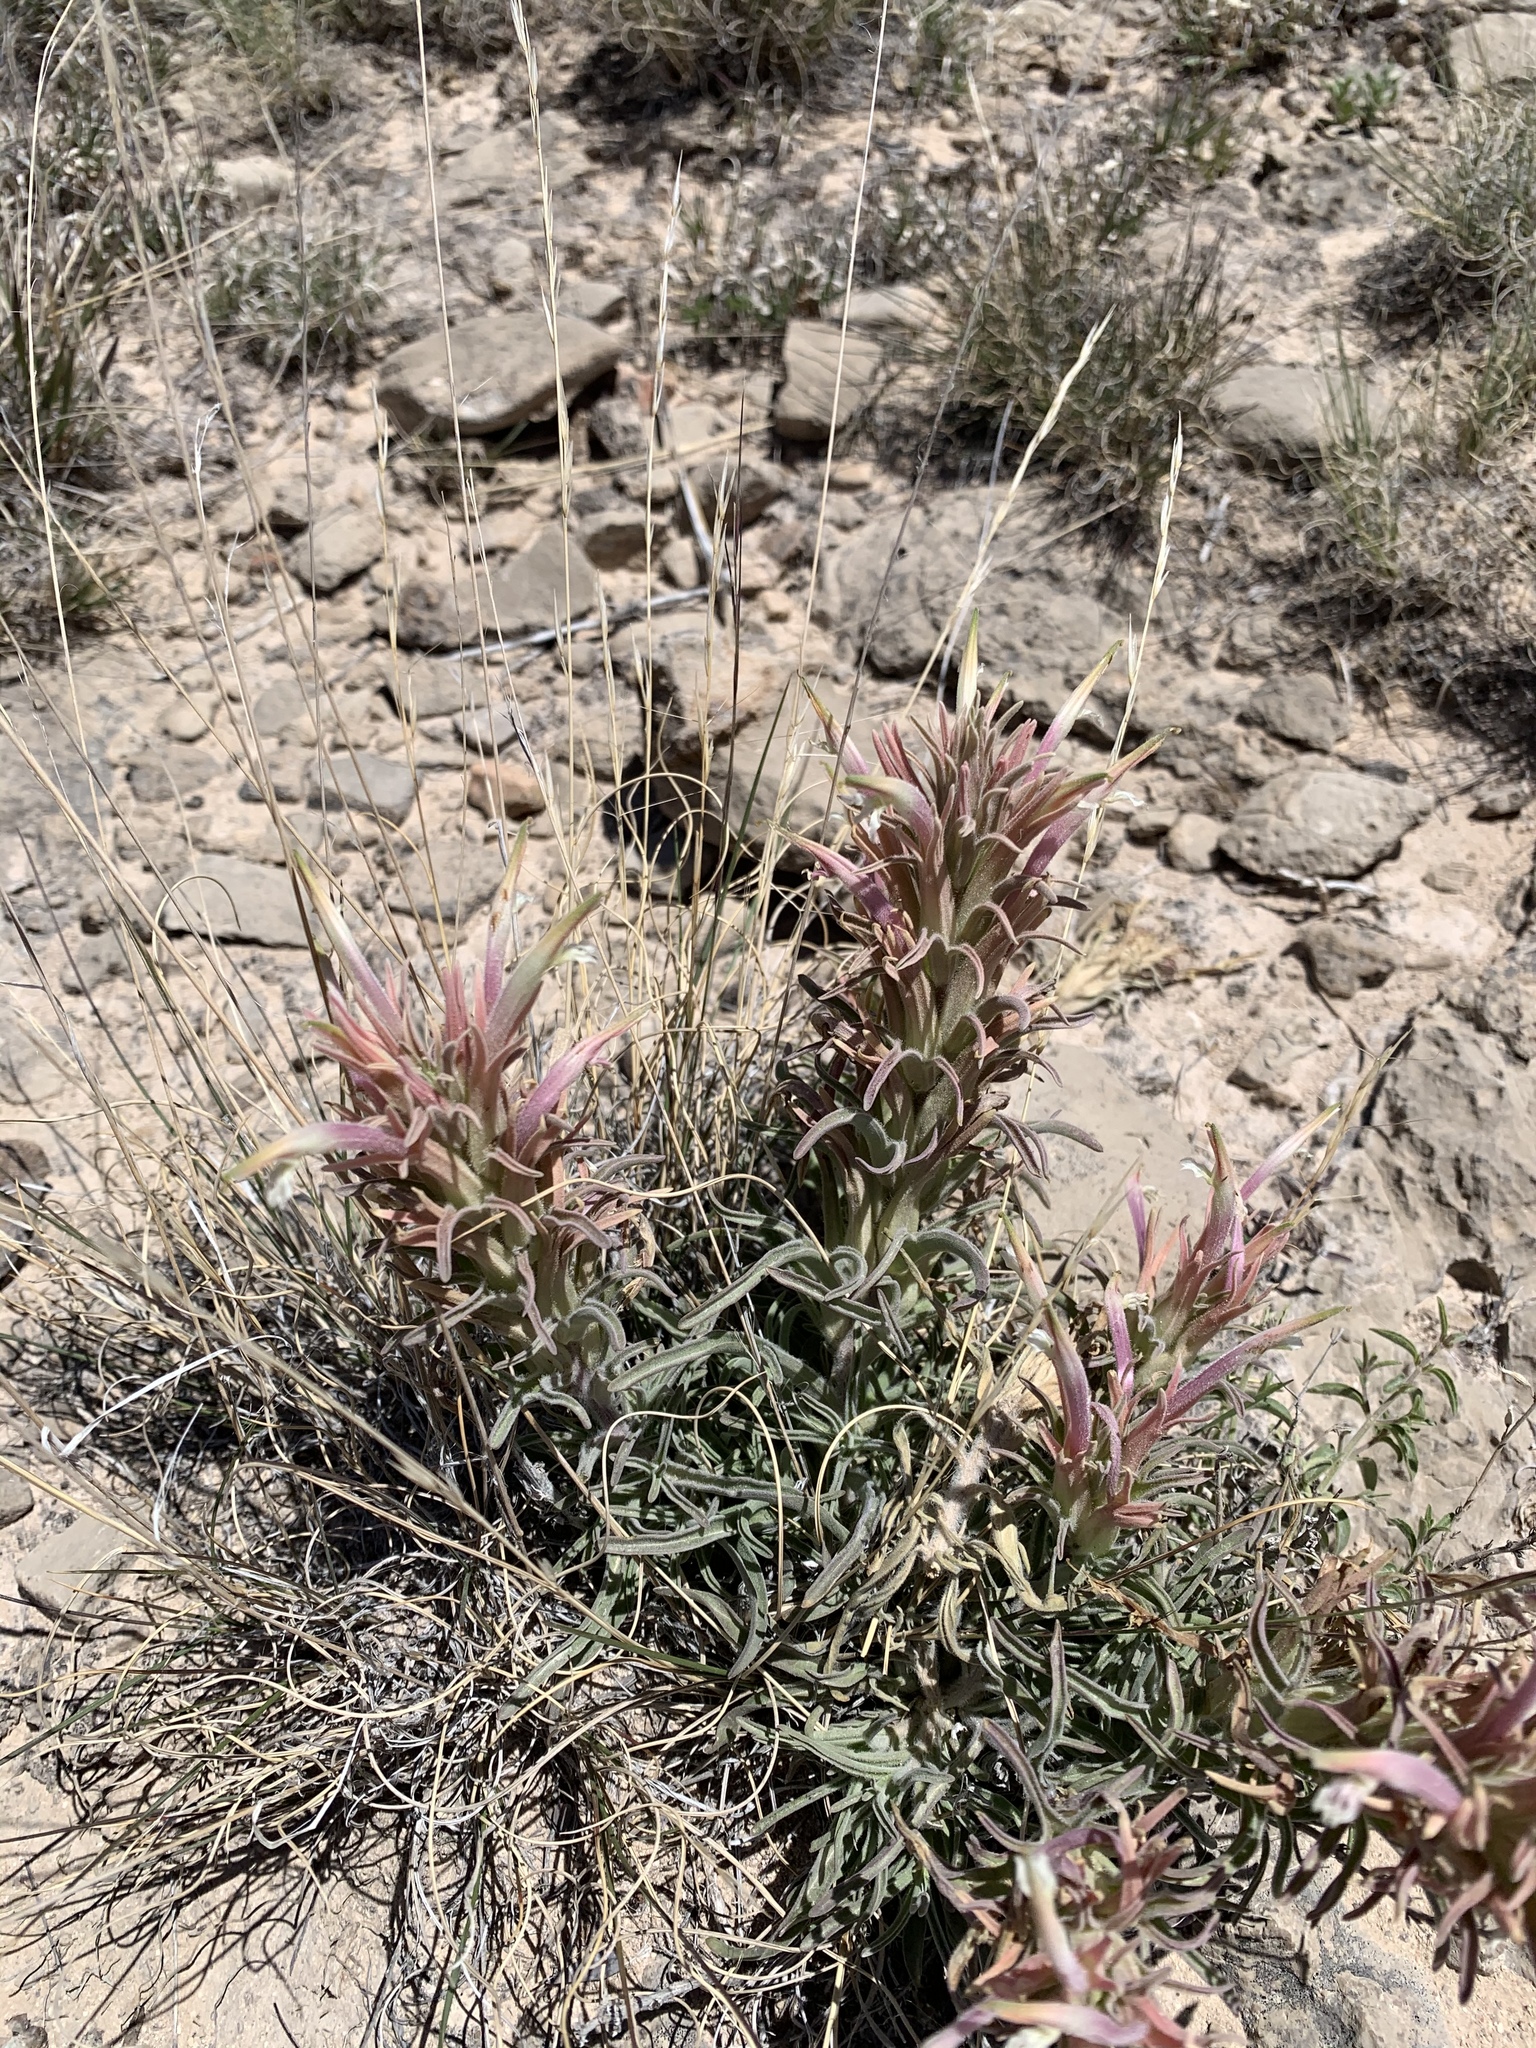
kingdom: Plantae
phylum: Tracheophyta
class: Magnoliopsida
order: Lamiales
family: Orobanchaceae
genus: Castilleja
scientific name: Castilleja sessiliflora
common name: Downy paintbrush
